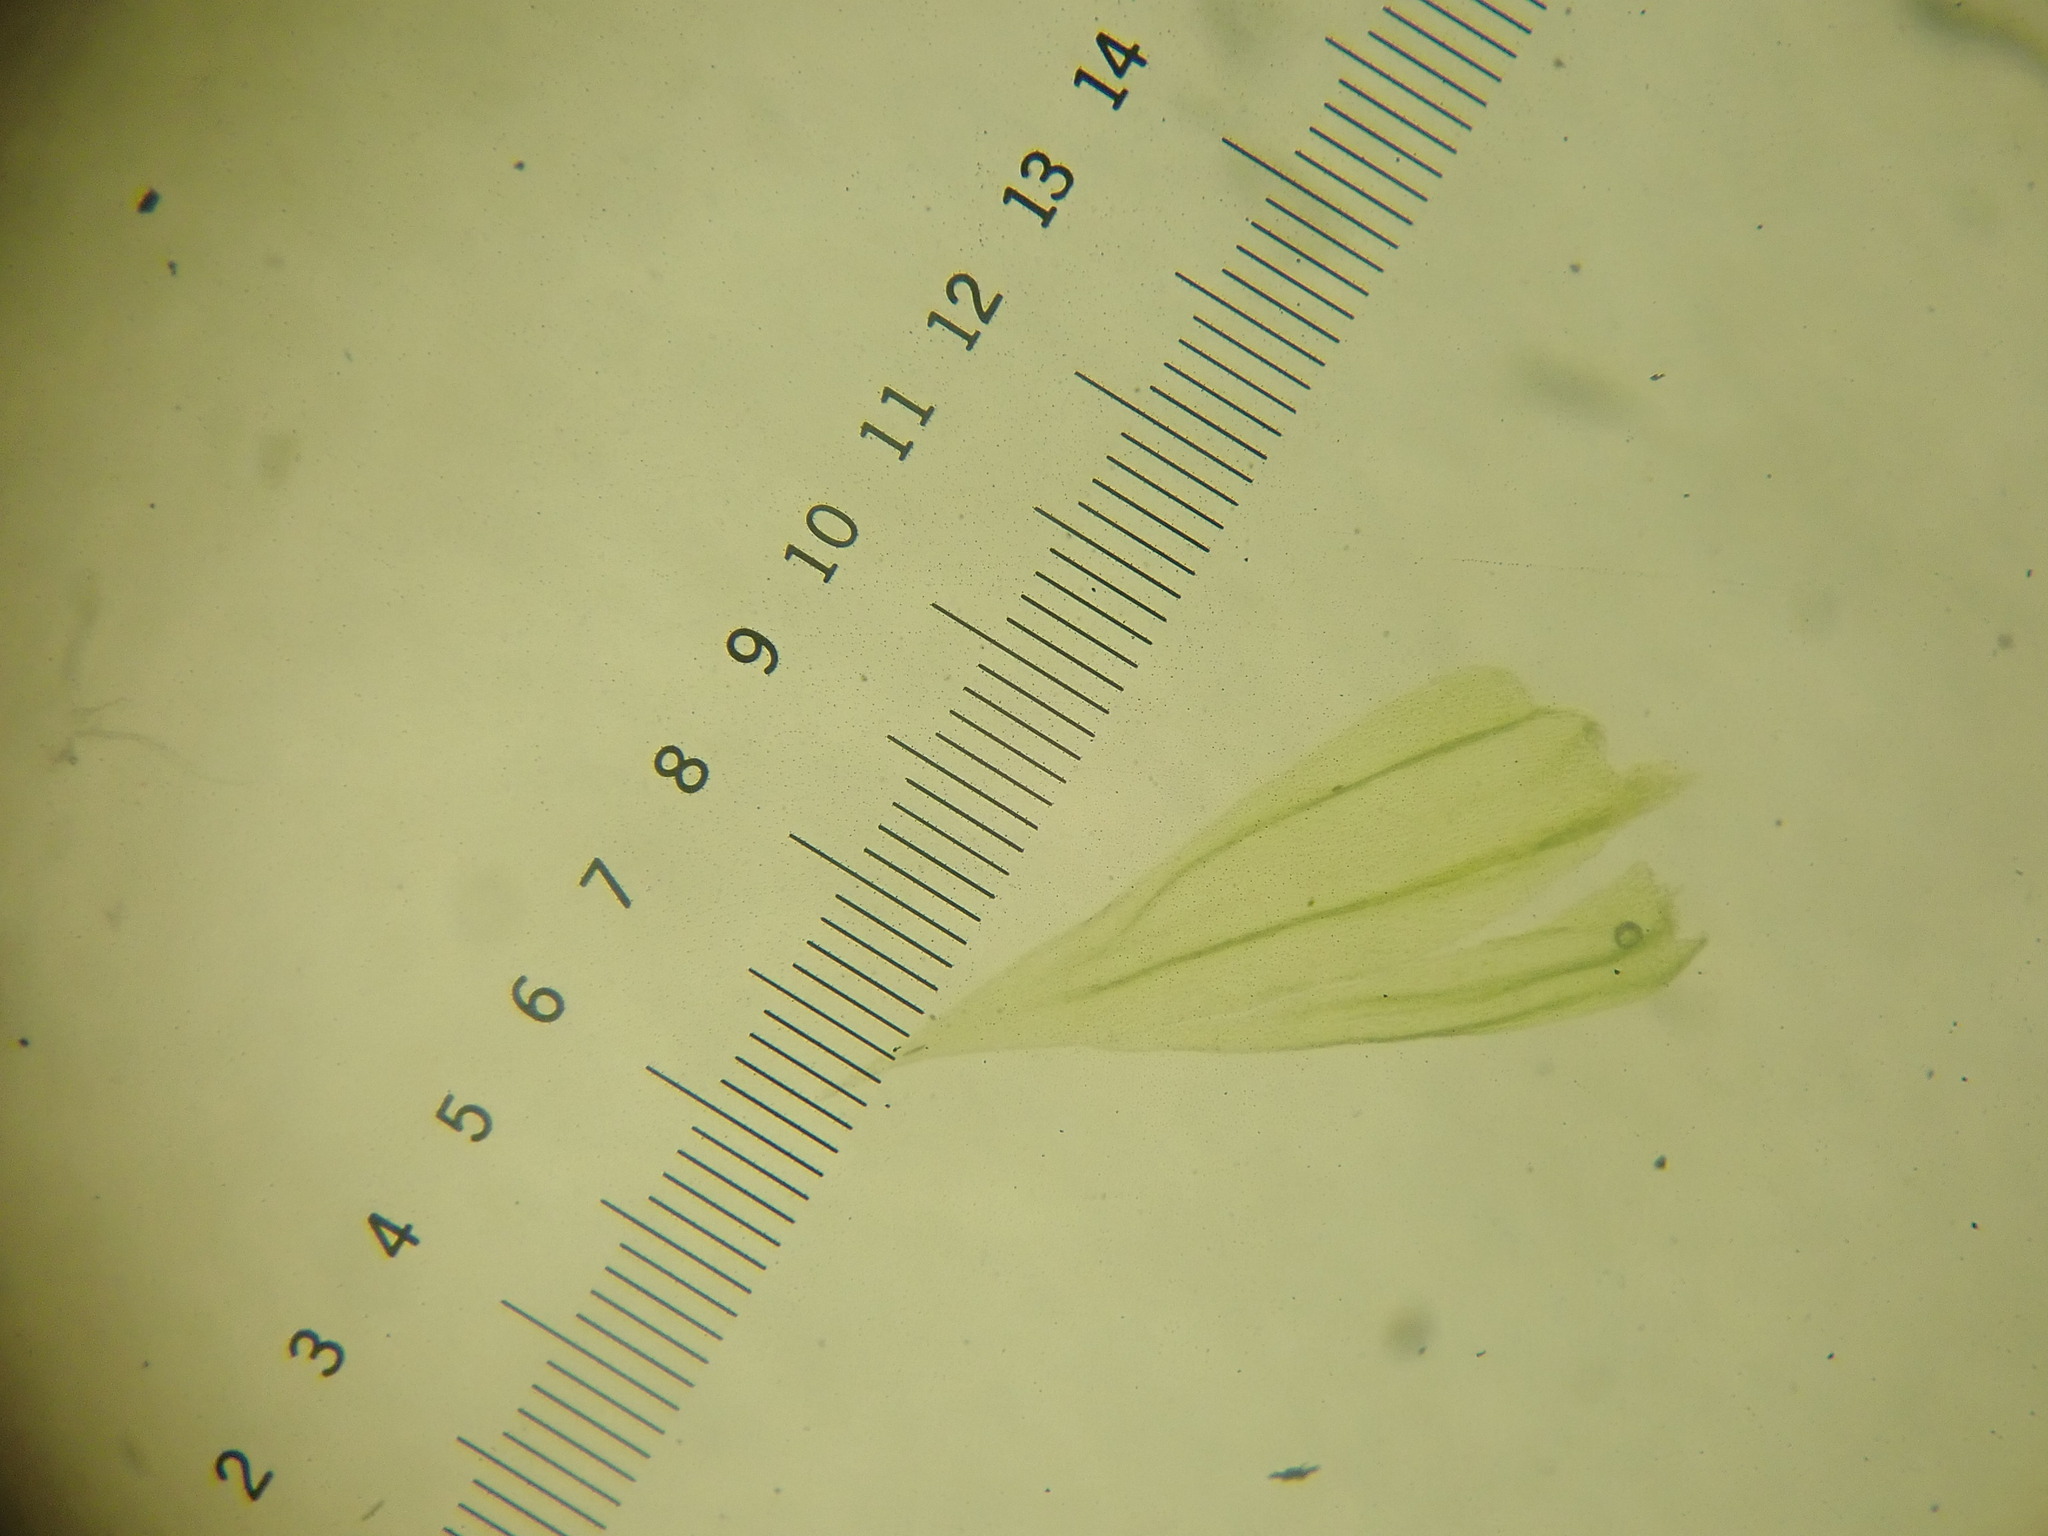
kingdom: Plantae
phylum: Bryophyta
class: Bryopsida
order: Hypnales
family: Brachytheciaceae
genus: Brachythecium
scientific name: Brachythecium laetum
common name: Bright ragged moss
